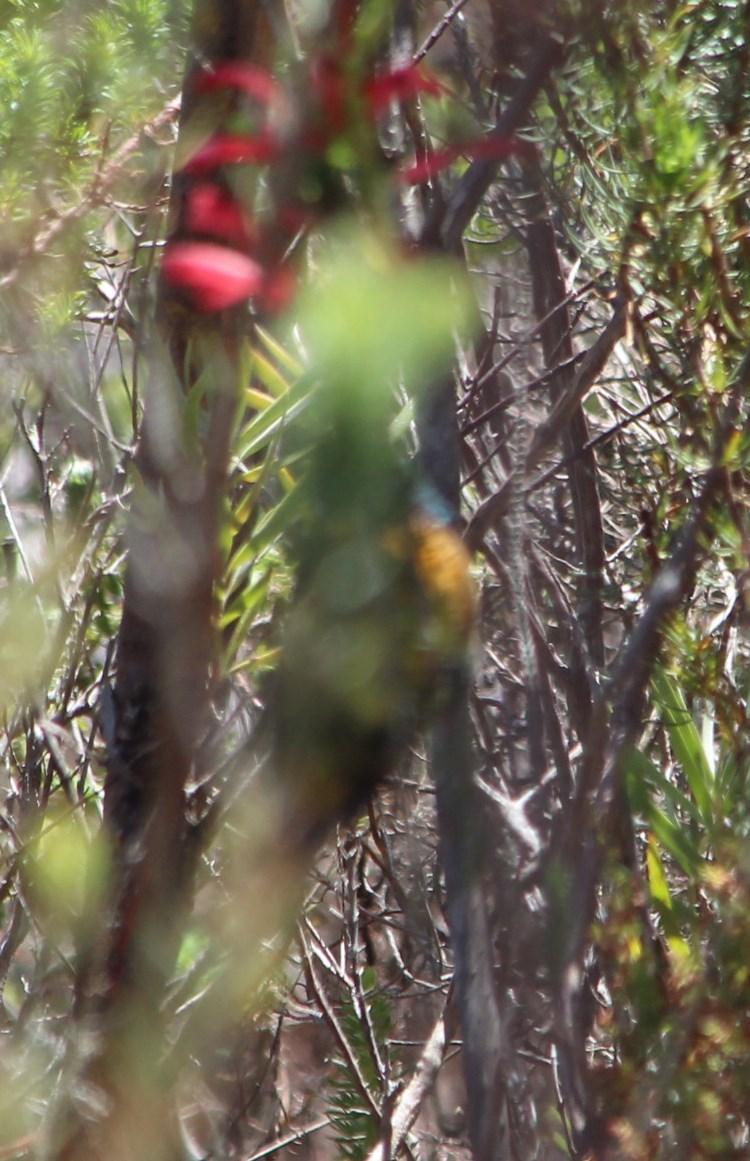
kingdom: Animalia
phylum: Chordata
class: Aves
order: Passeriformes
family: Nectariniidae
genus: Anthobaphes
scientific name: Anthobaphes violacea
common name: Orange-breasted sunbird
